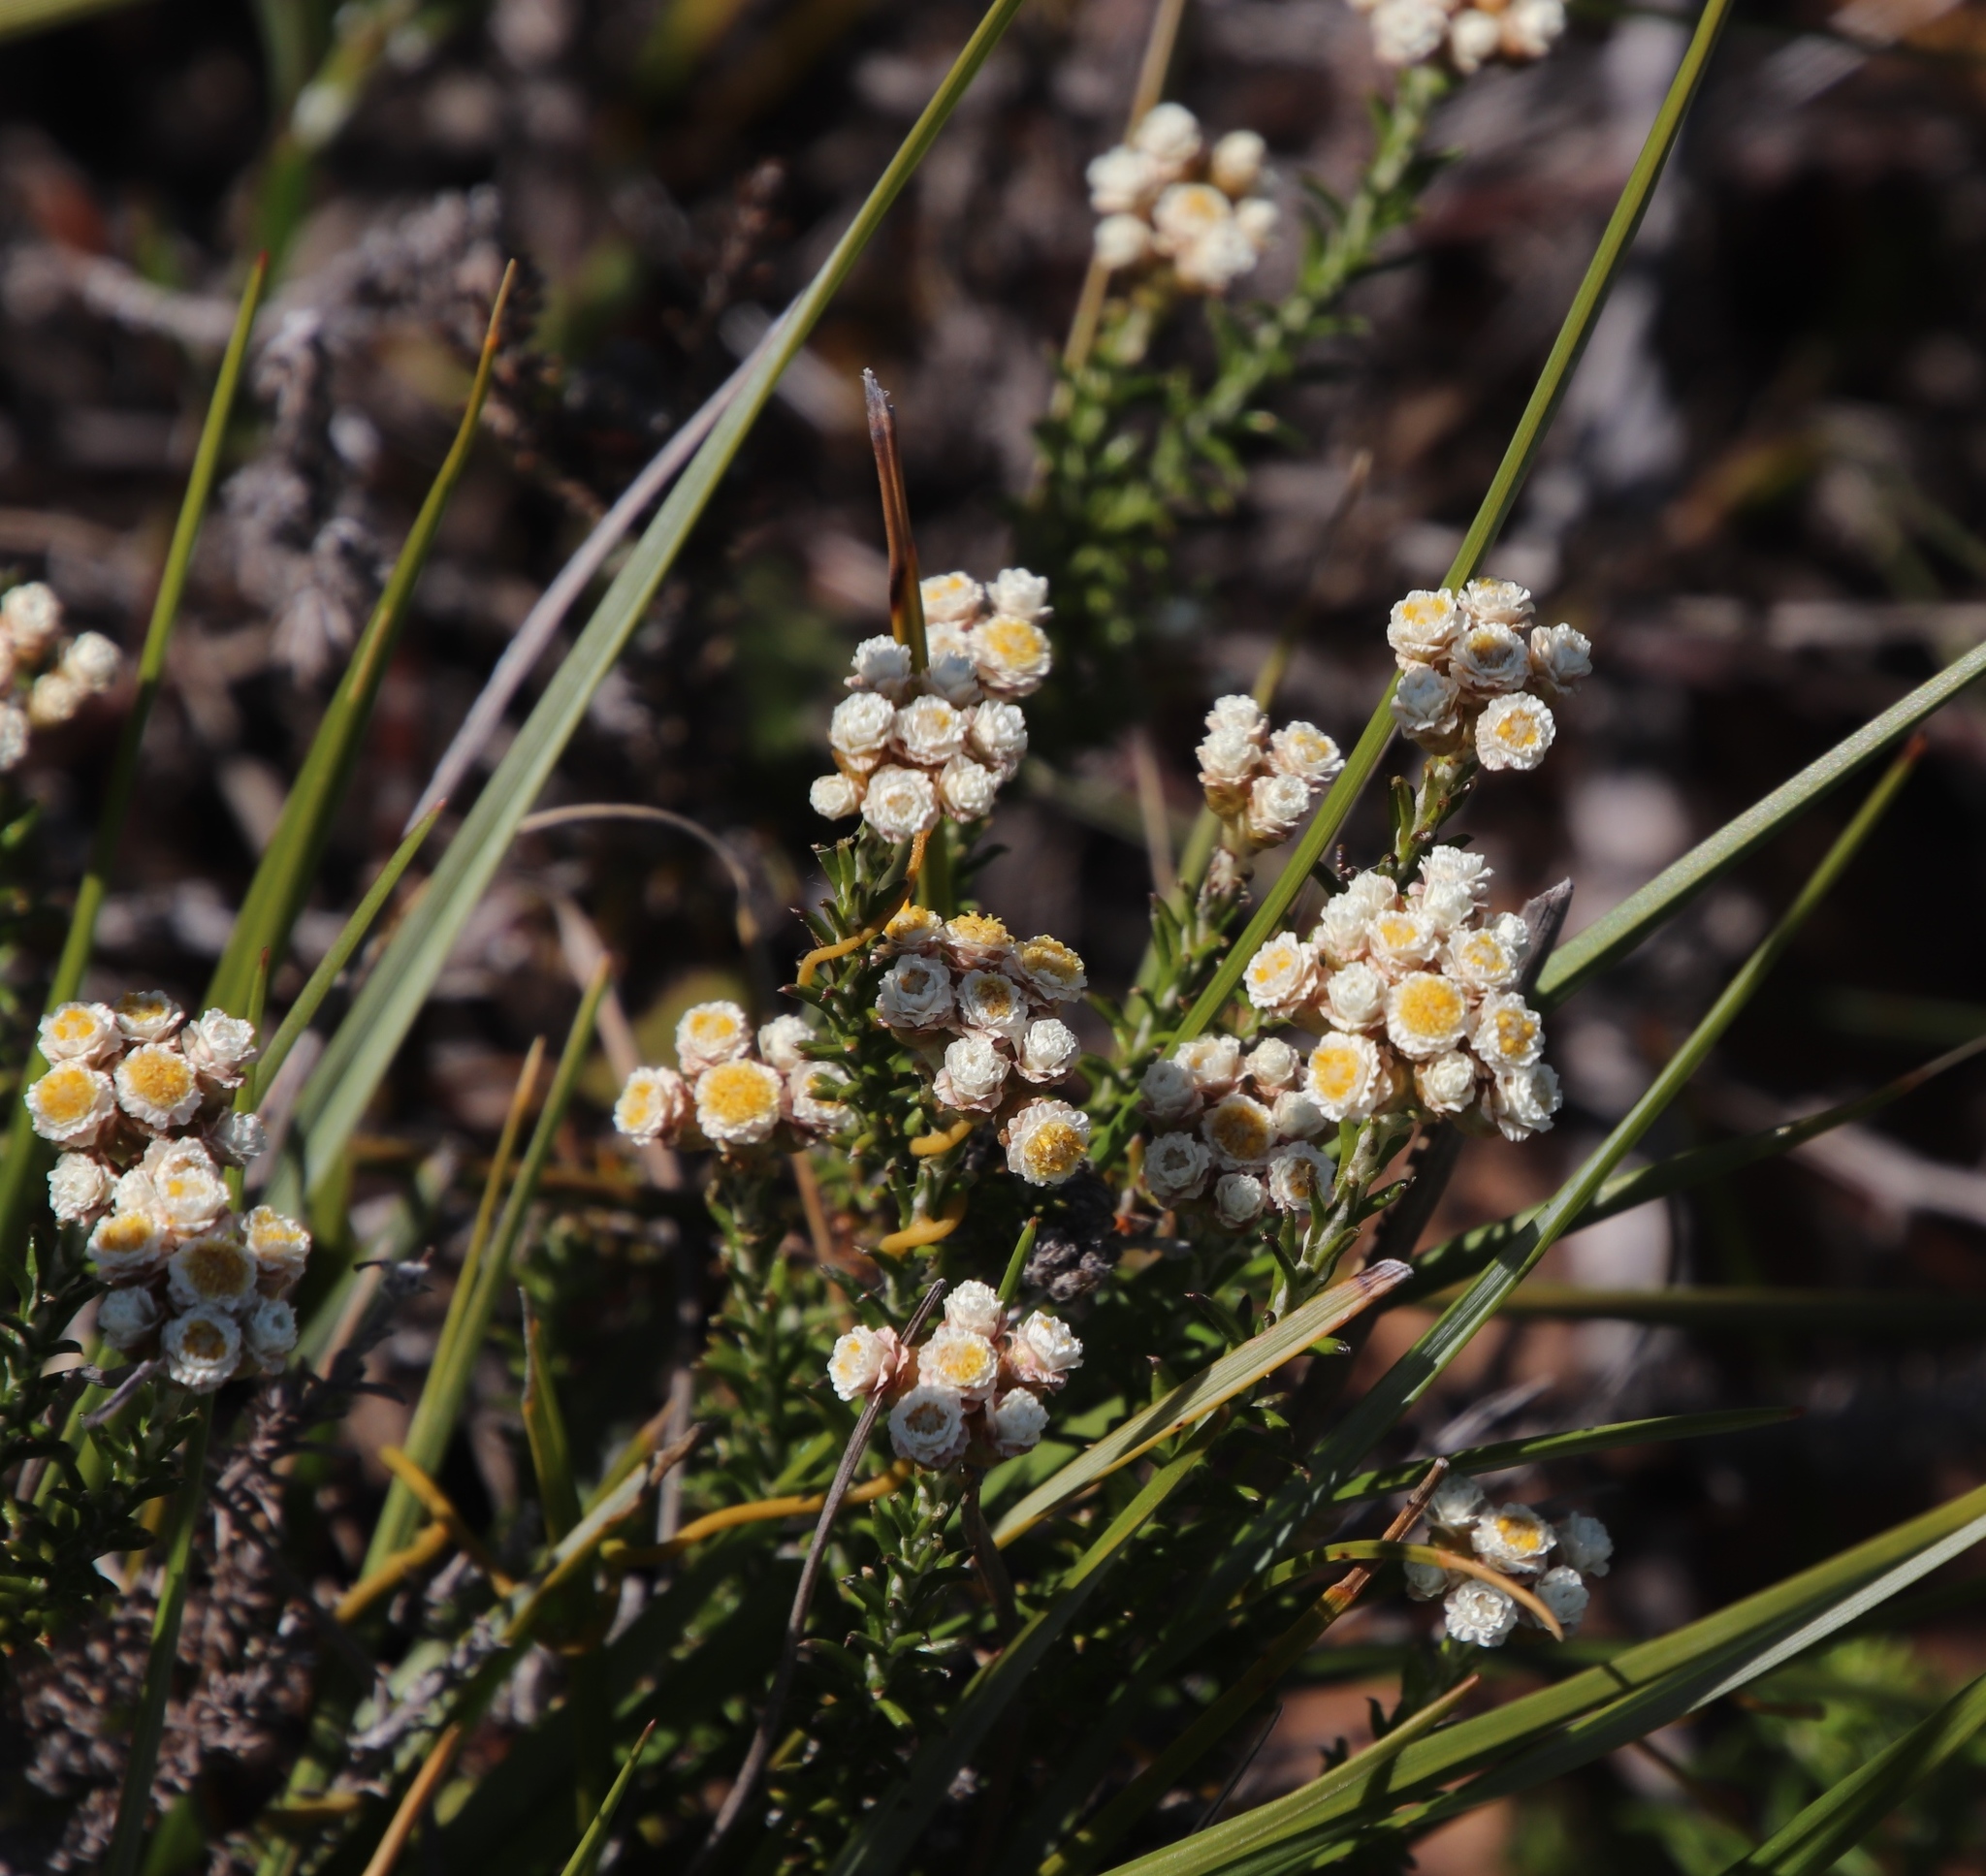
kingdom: Plantae
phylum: Tracheophyta
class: Magnoliopsida
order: Asterales
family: Asteraceae
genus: Helichrysum
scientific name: Helichrysum teretifolium
